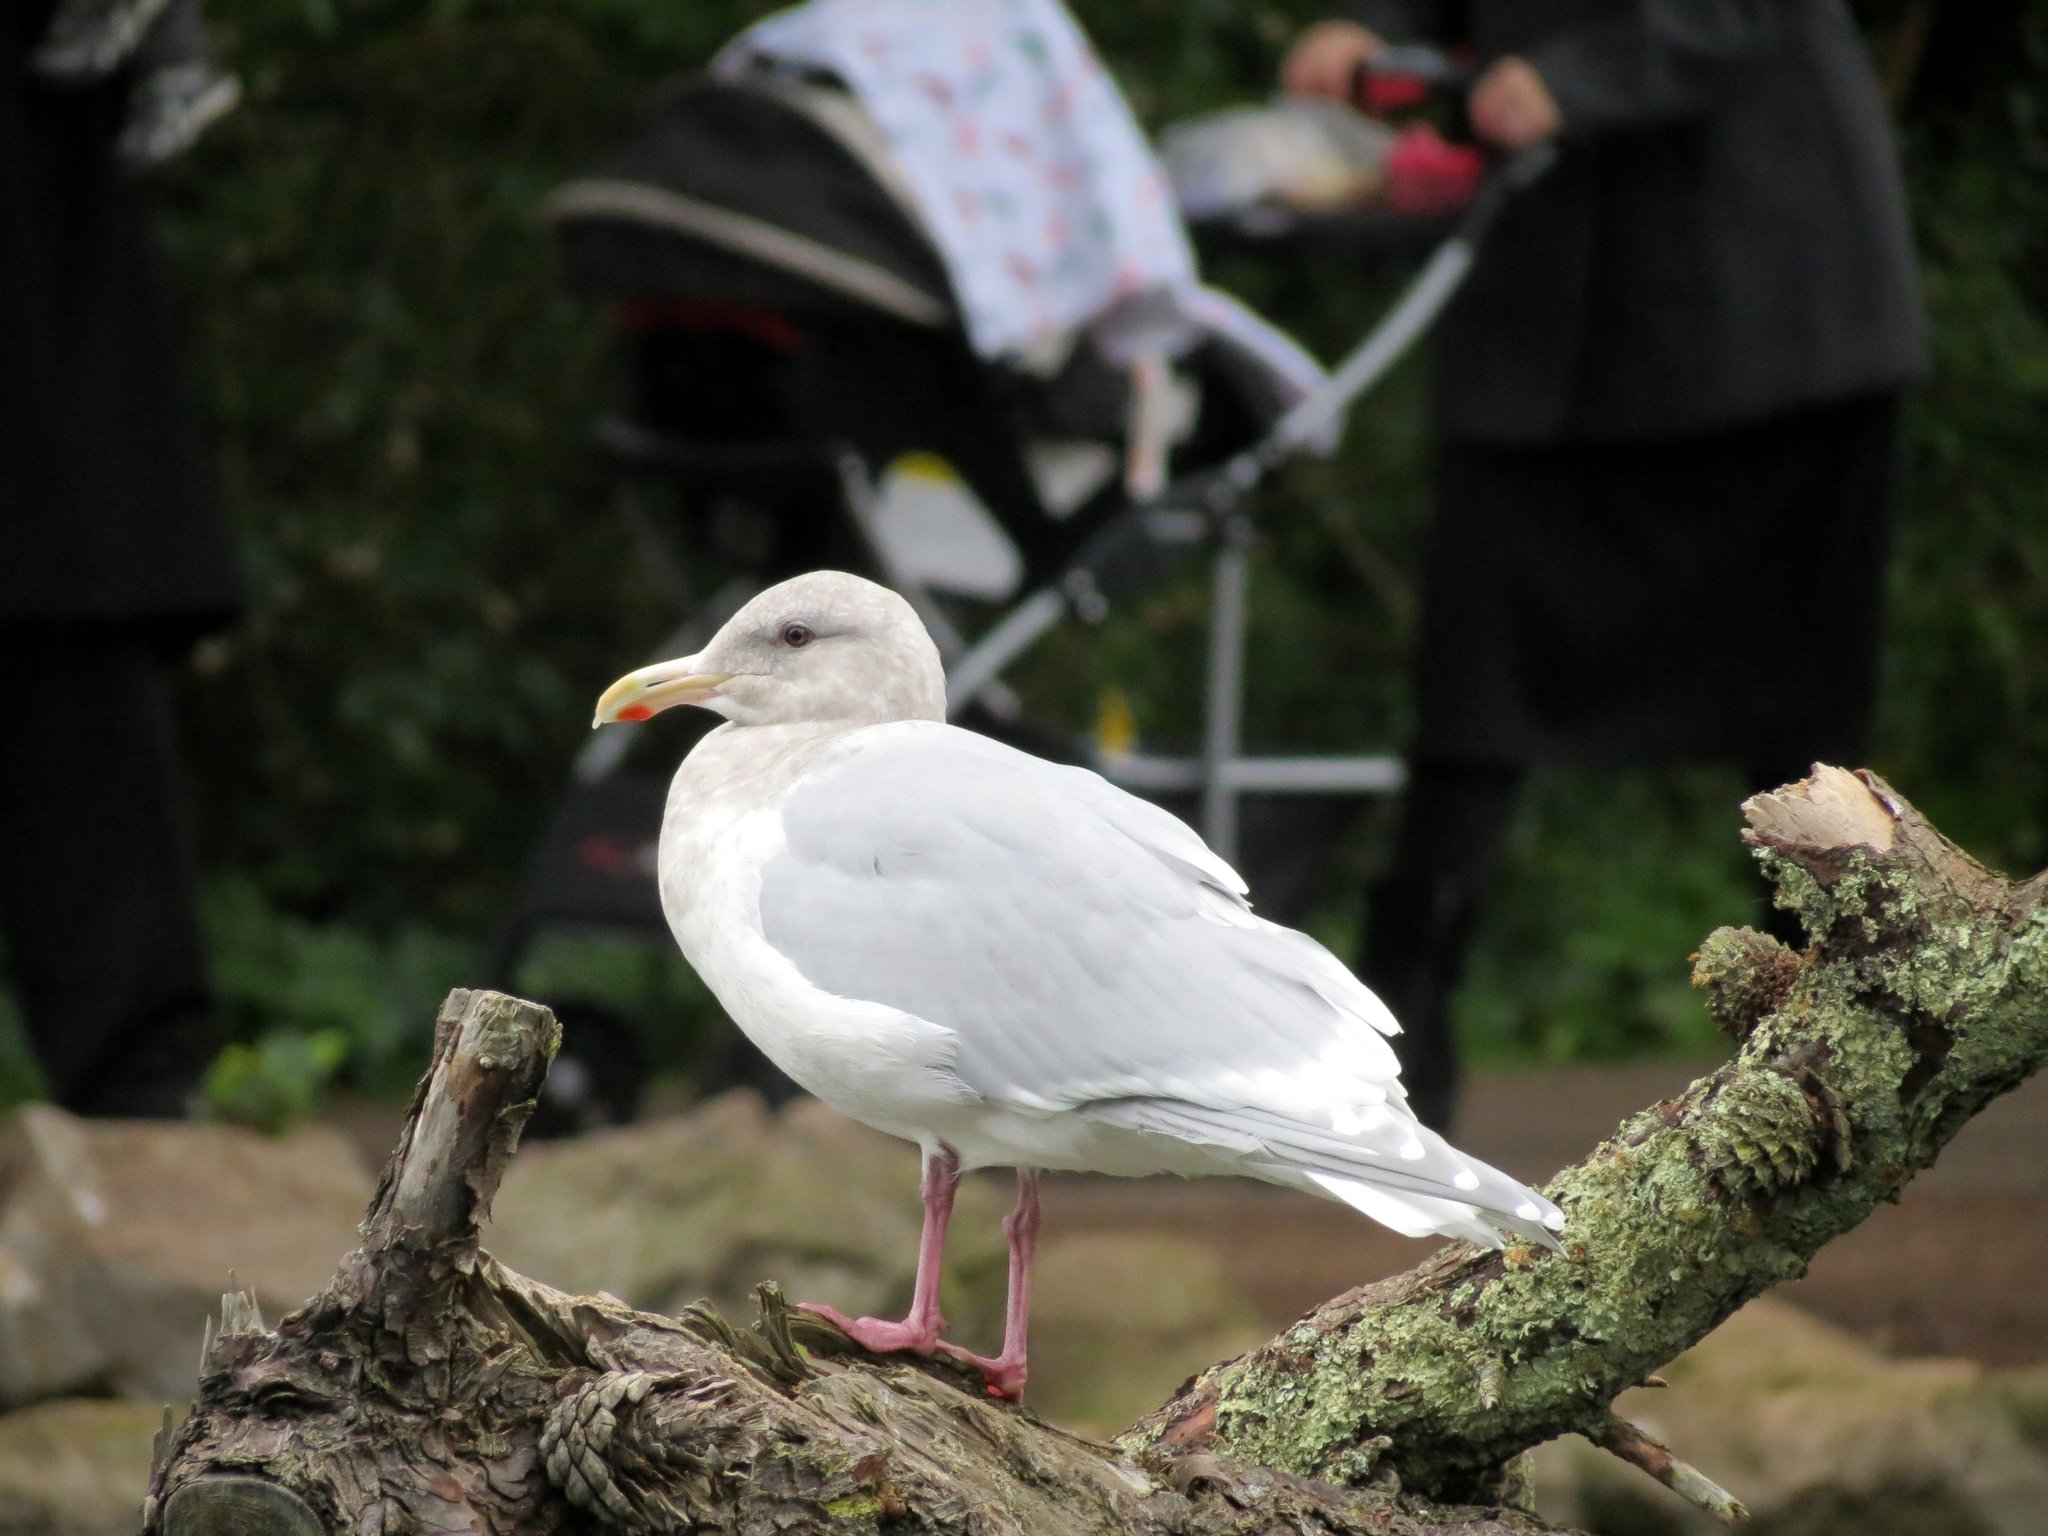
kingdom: Animalia
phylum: Chordata
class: Aves
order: Charadriiformes
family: Laridae
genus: Larus
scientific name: Larus glaucescens
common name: Glaucous-winged gull
